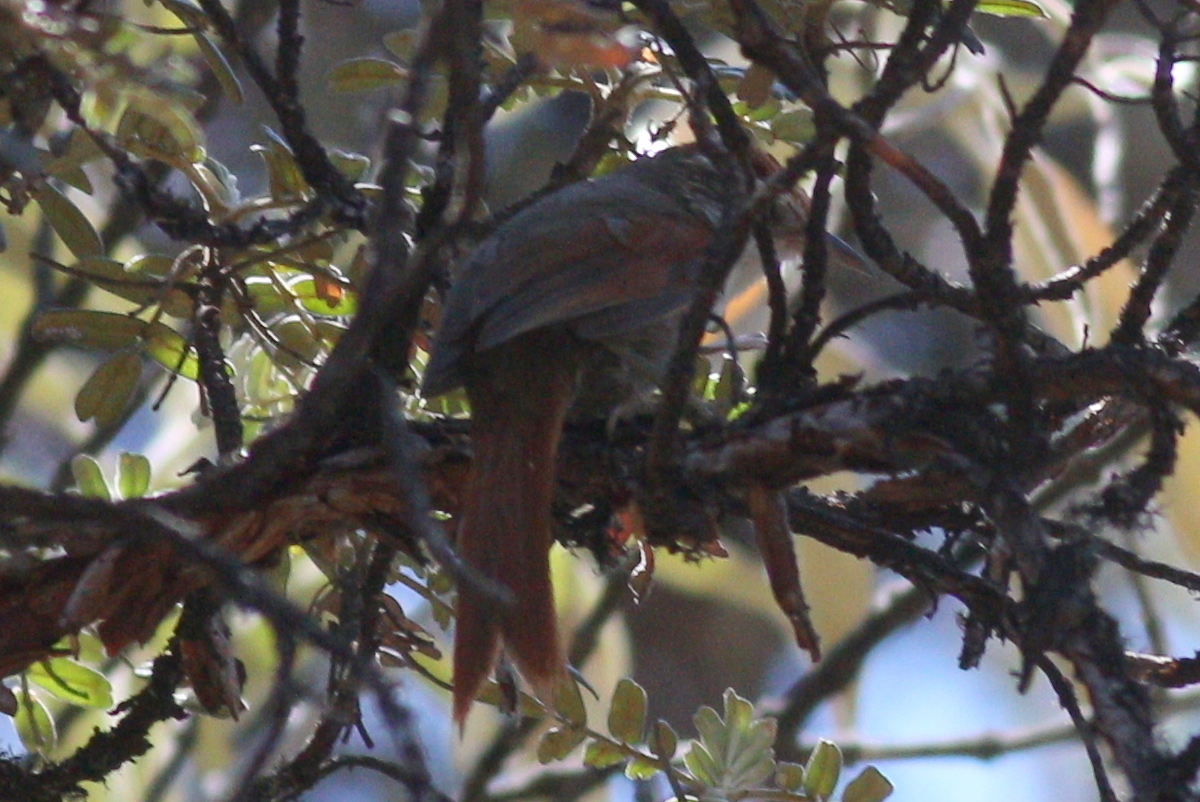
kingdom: Animalia
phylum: Chordata
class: Aves
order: Passeriformes
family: Furnariidae
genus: Cranioleuca
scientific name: Cranioleuca antisiensis
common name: Line-cheeked spinetail
